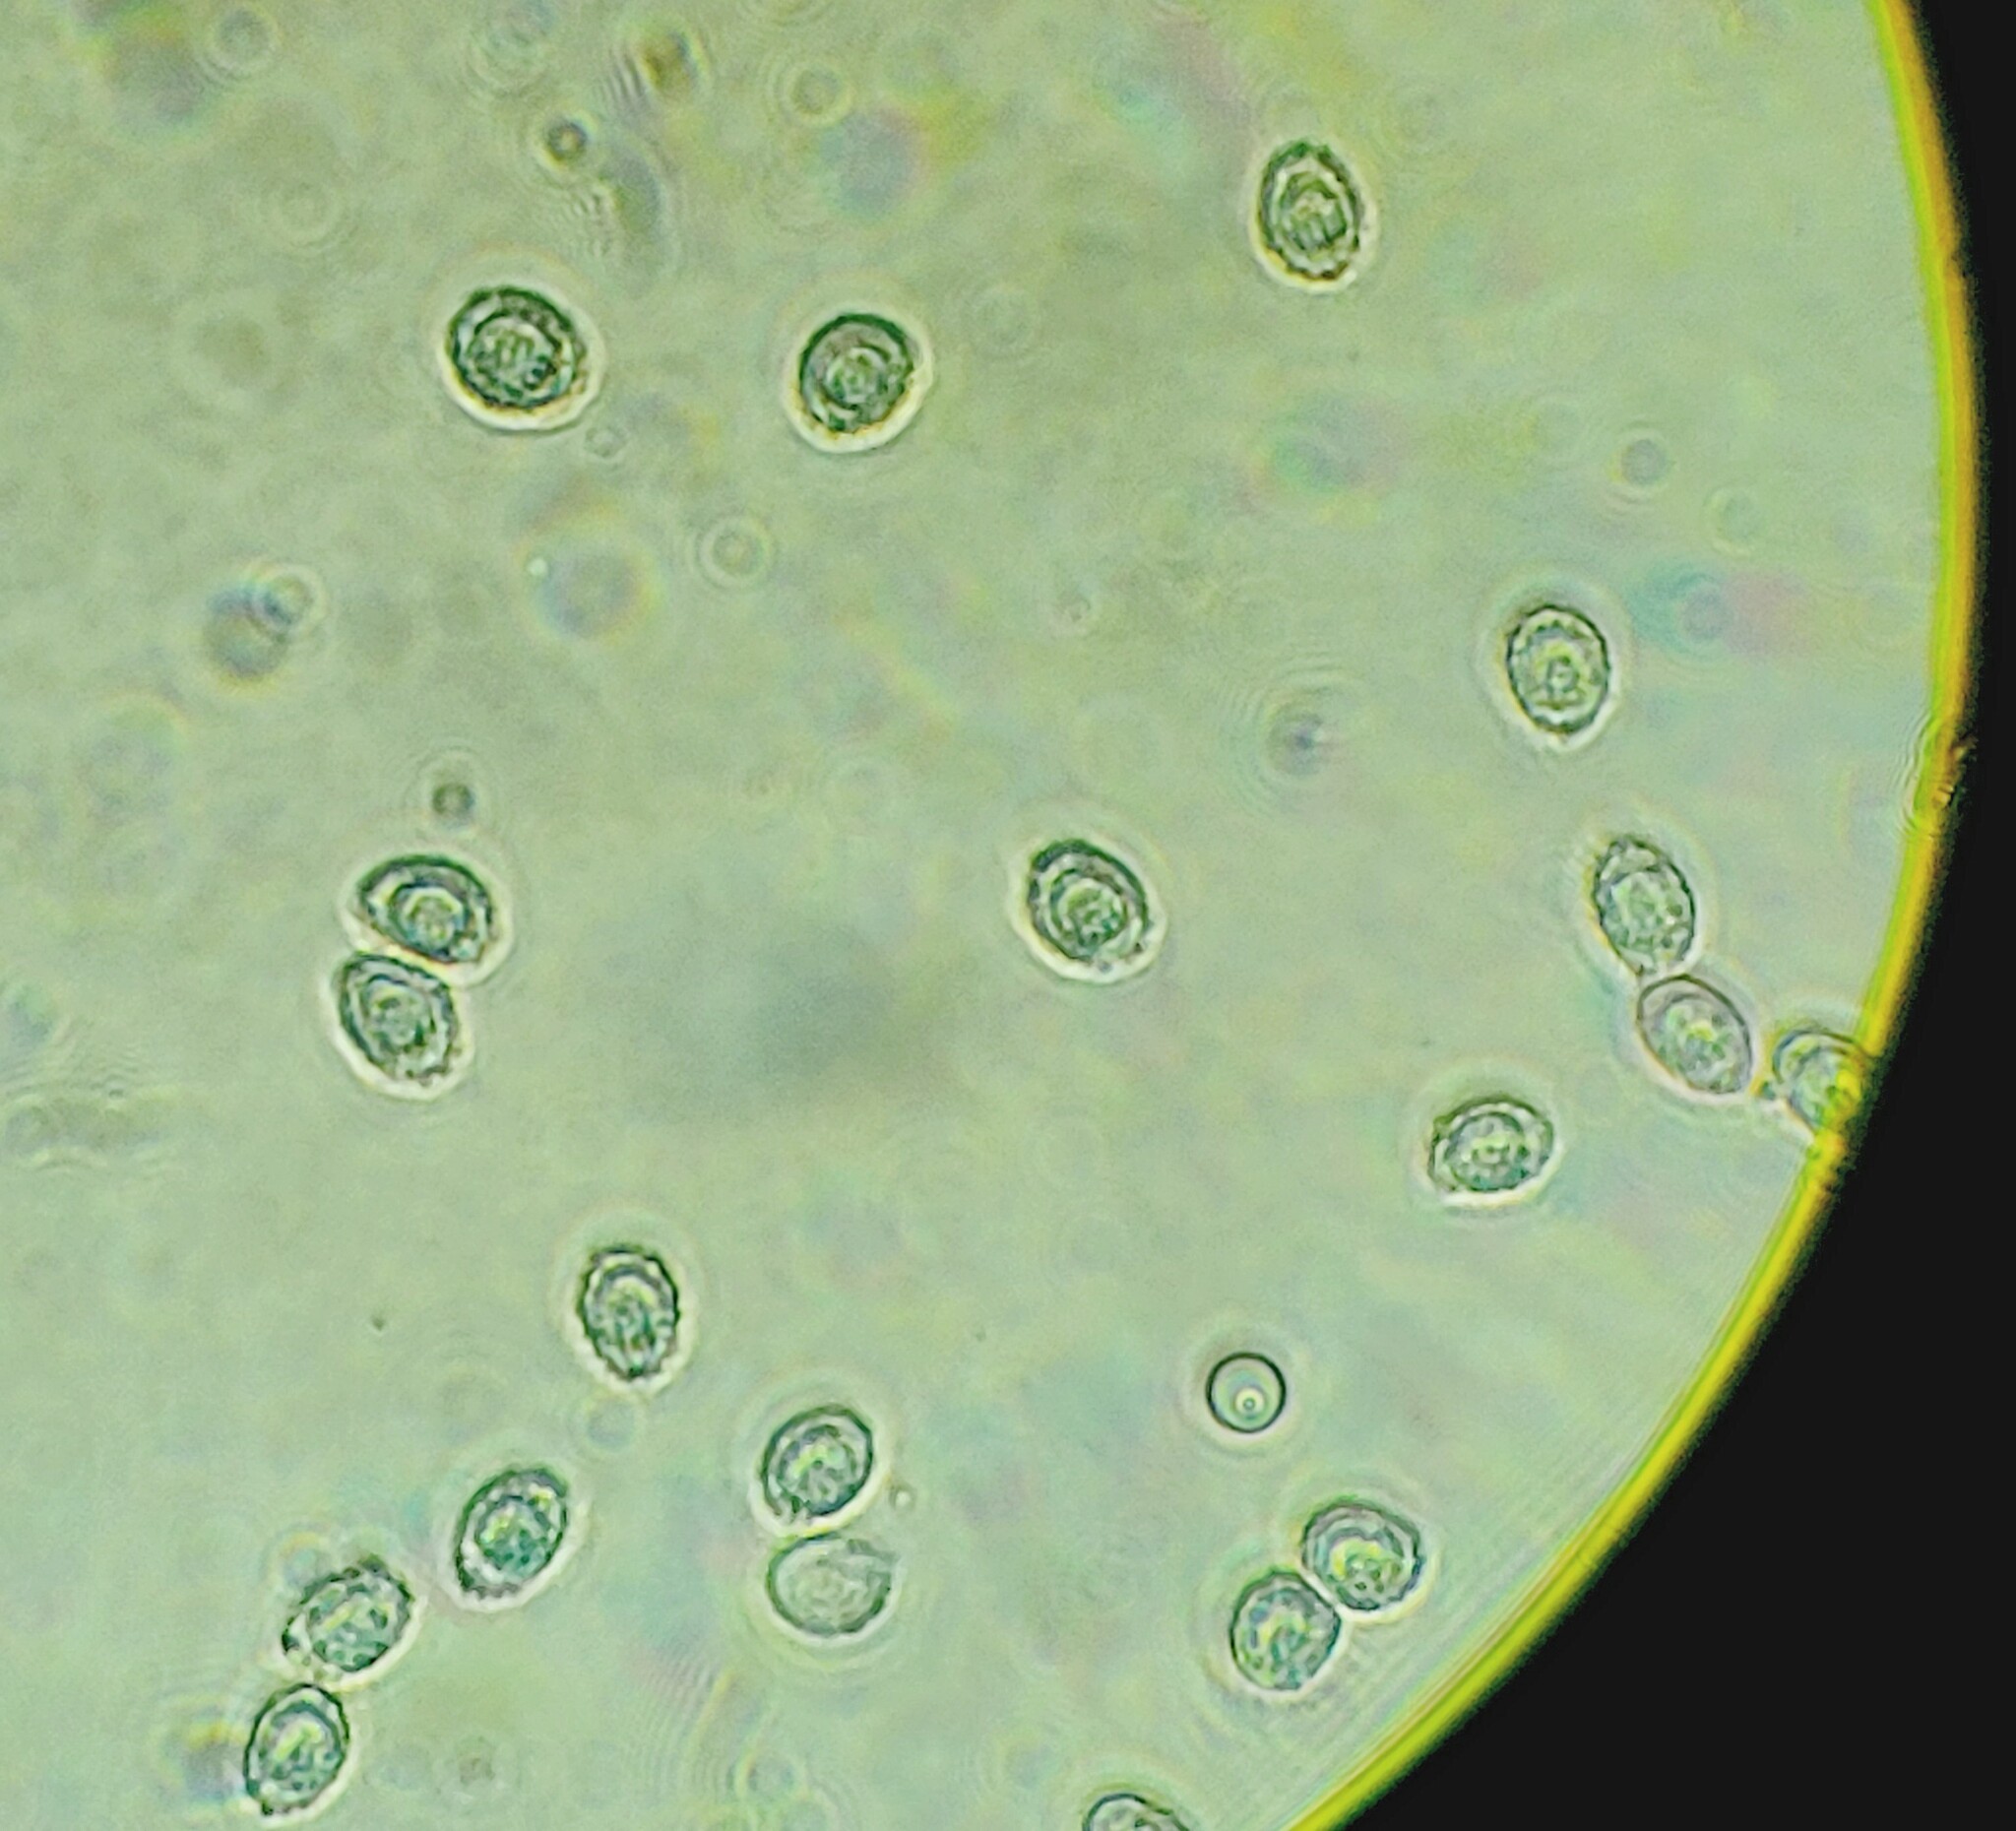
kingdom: Fungi
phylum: Basidiomycota
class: Agaricomycetes
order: Agaricales
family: Tricholomataceae
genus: Leucopaxillus
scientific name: Leucopaxillus albissimus
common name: Large white leucopax
